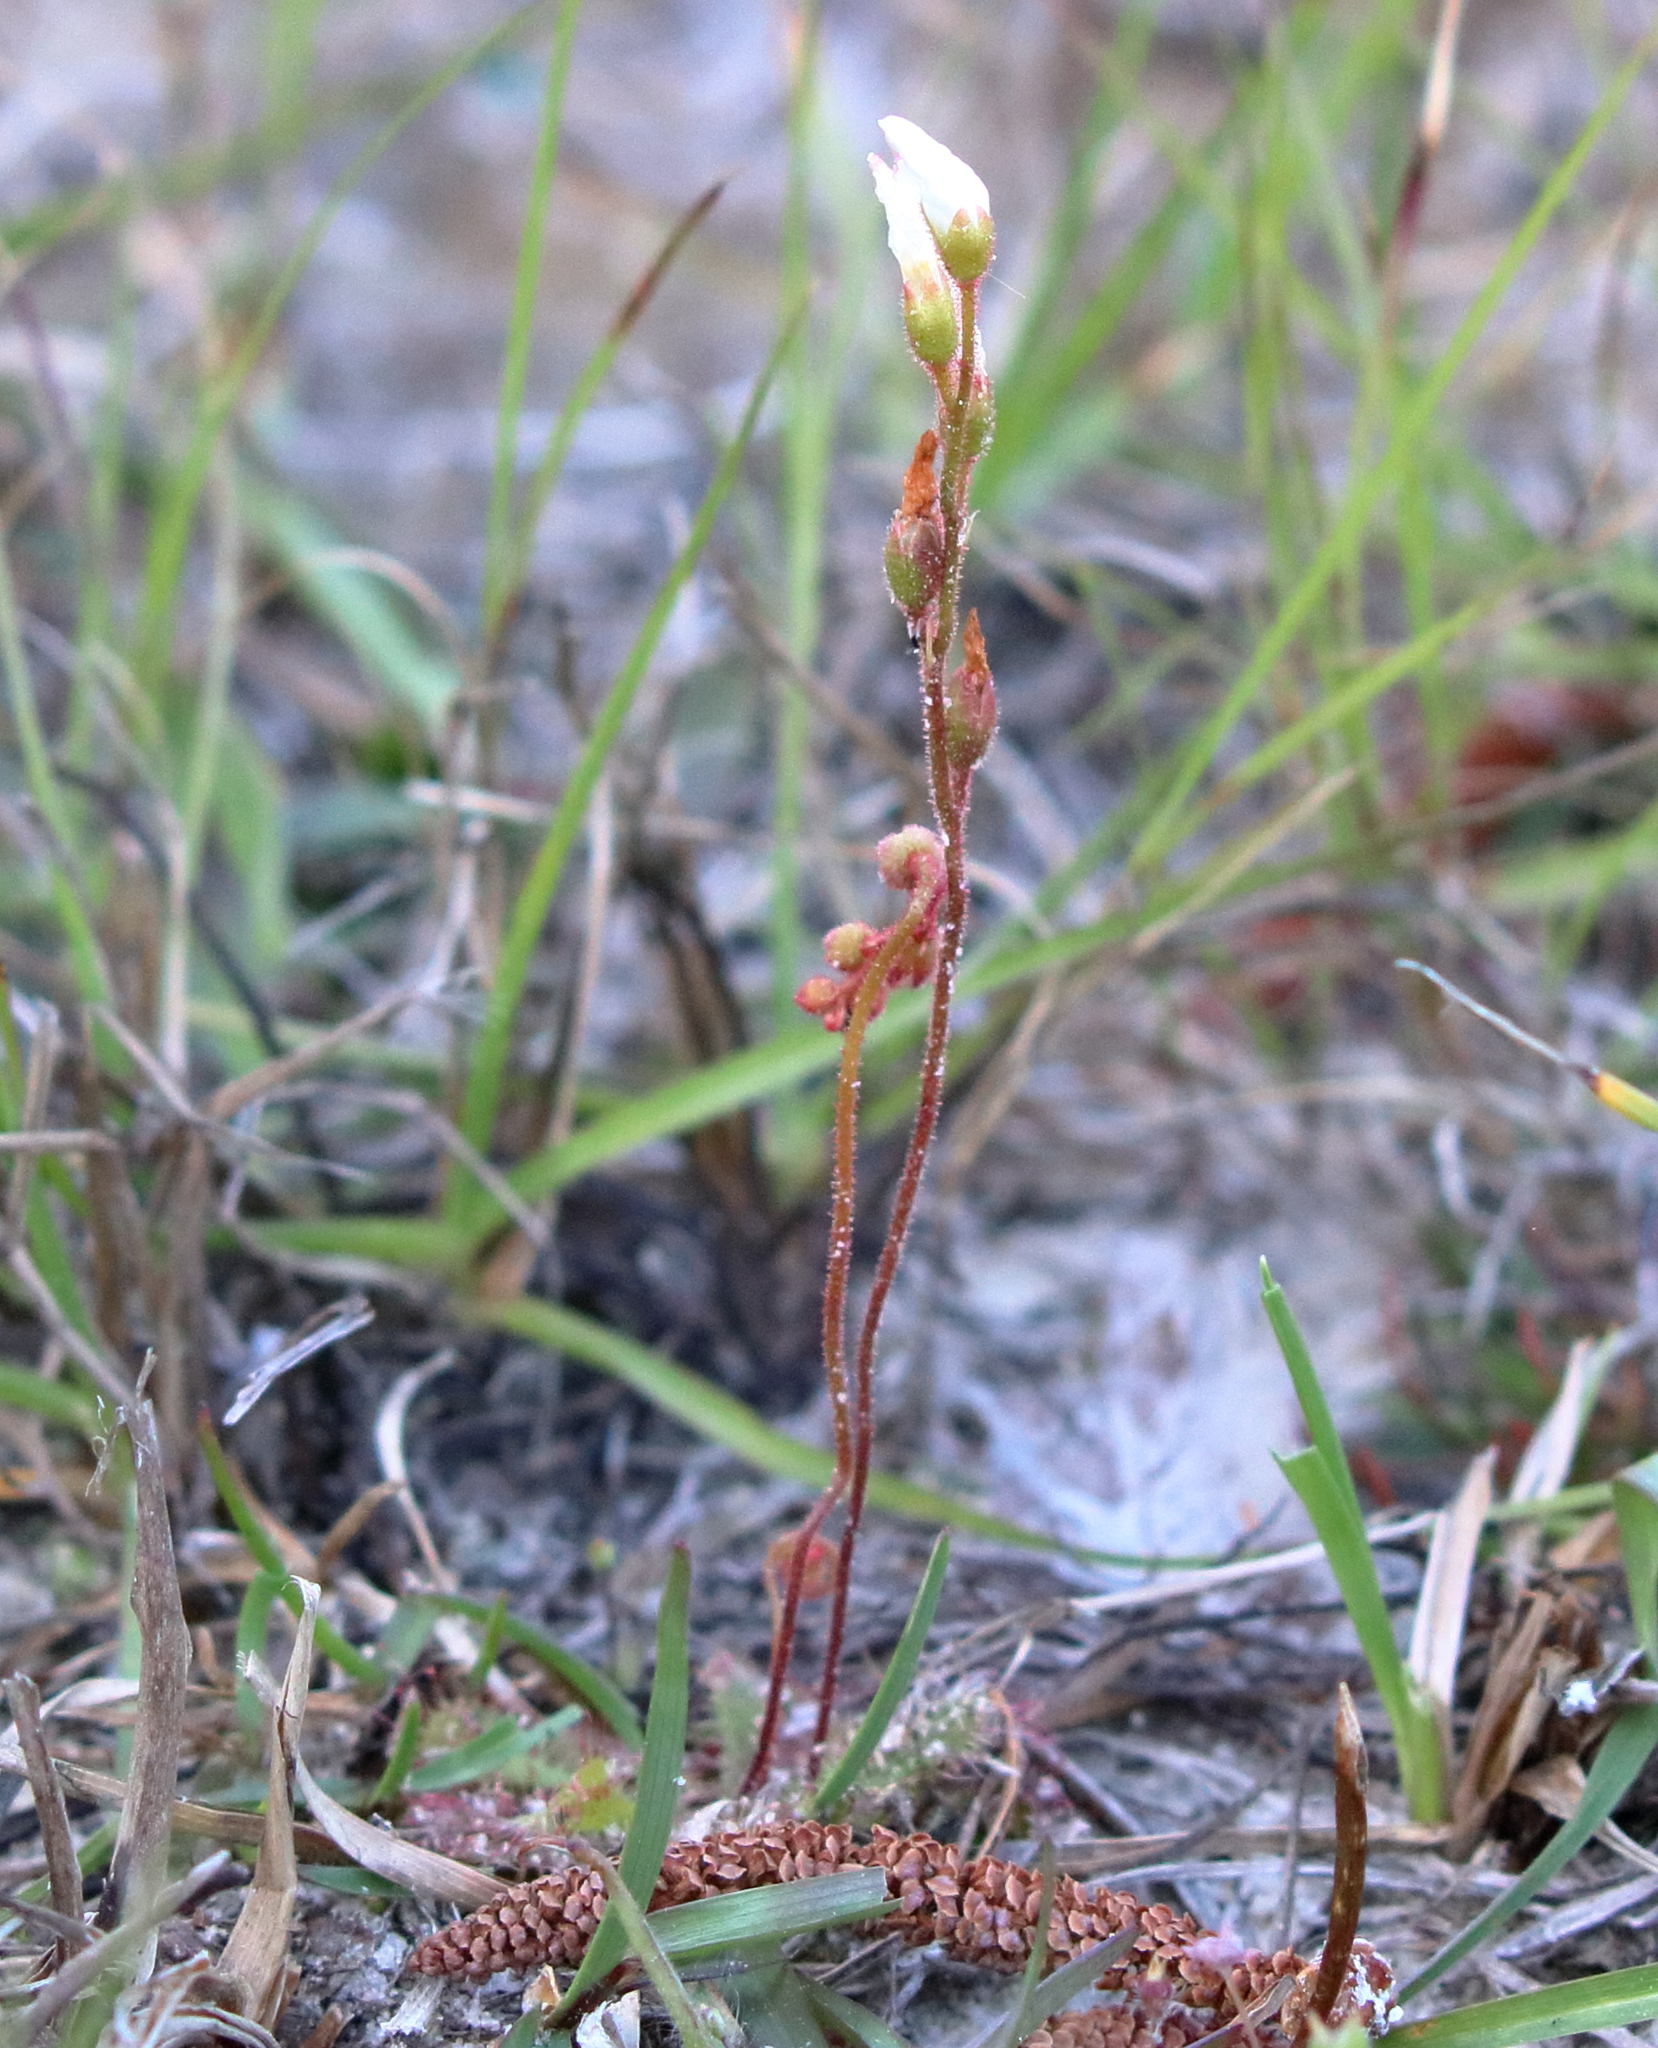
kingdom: Plantae
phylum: Tracheophyta
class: Magnoliopsida
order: Caryophyllales
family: Droseraceae
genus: Drosera
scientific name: Drosera brevifolia
